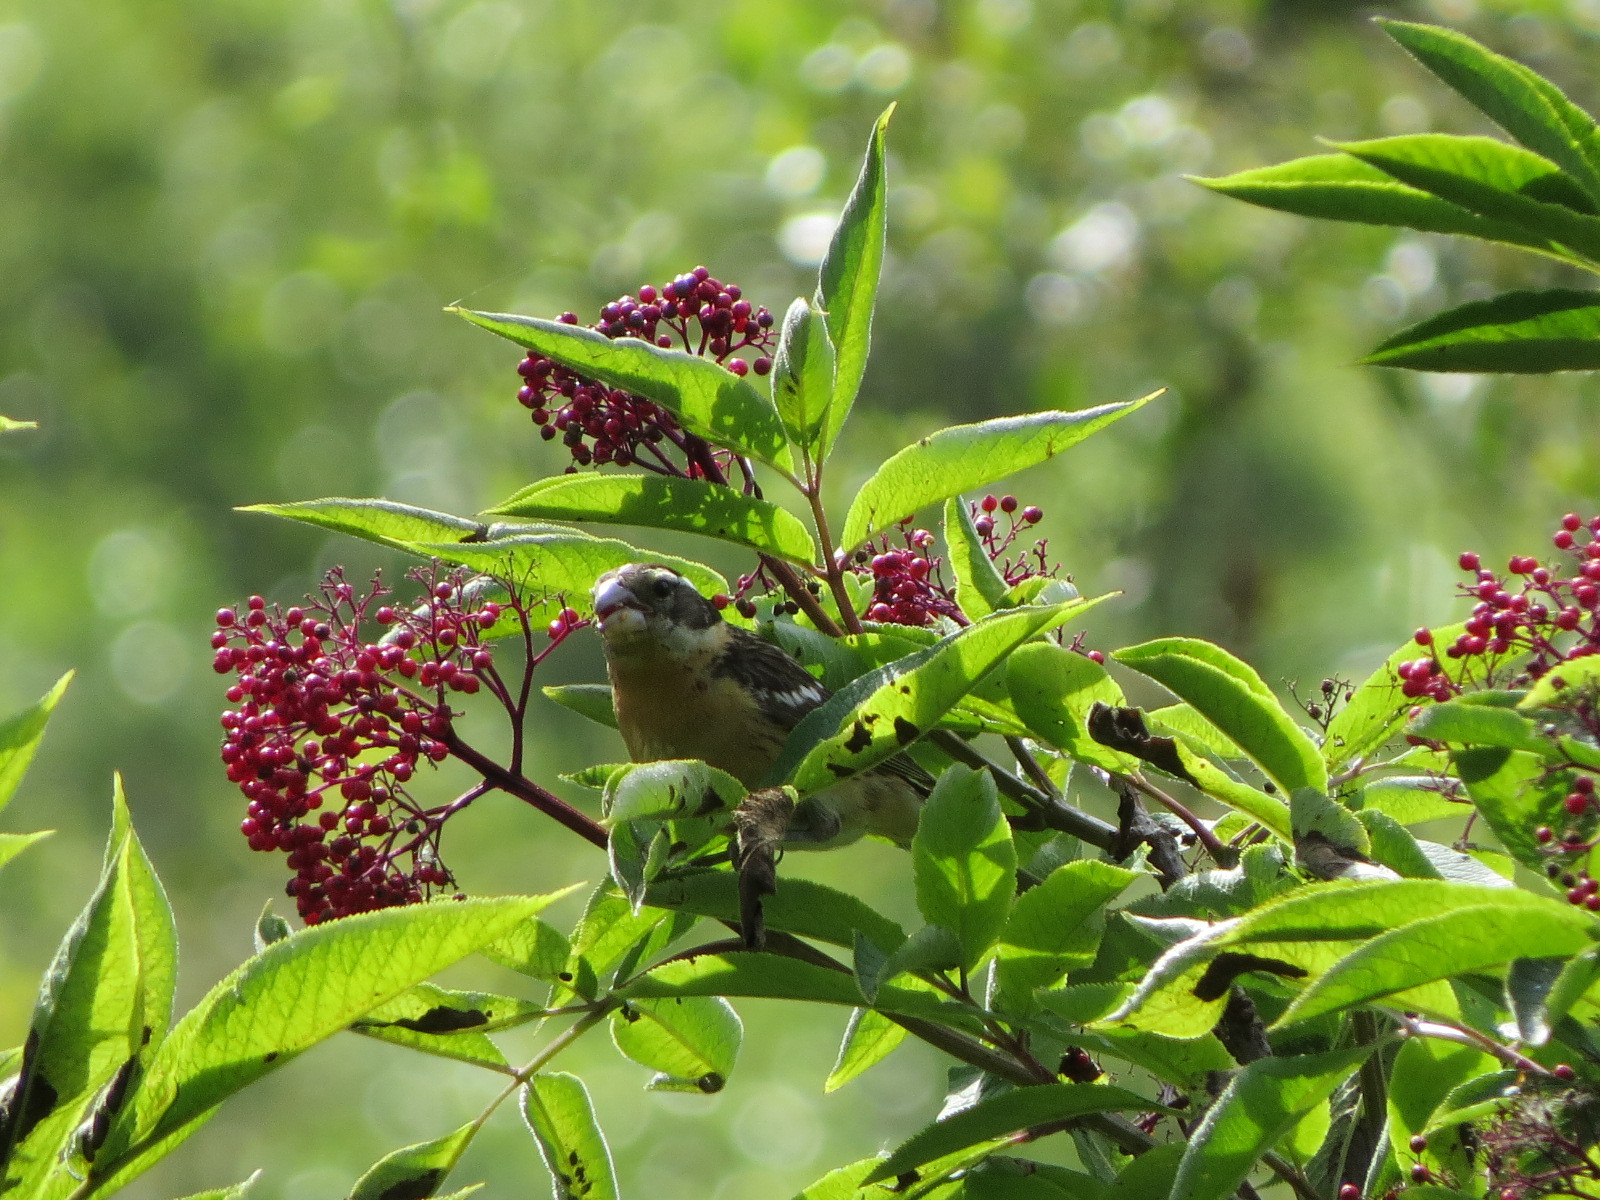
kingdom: Animalia
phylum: Chordata
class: Aves
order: Passeriformes
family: Cardinalidae
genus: Pheucticus
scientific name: Pheucticus melanocephalus
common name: Black-headed grosbeak
